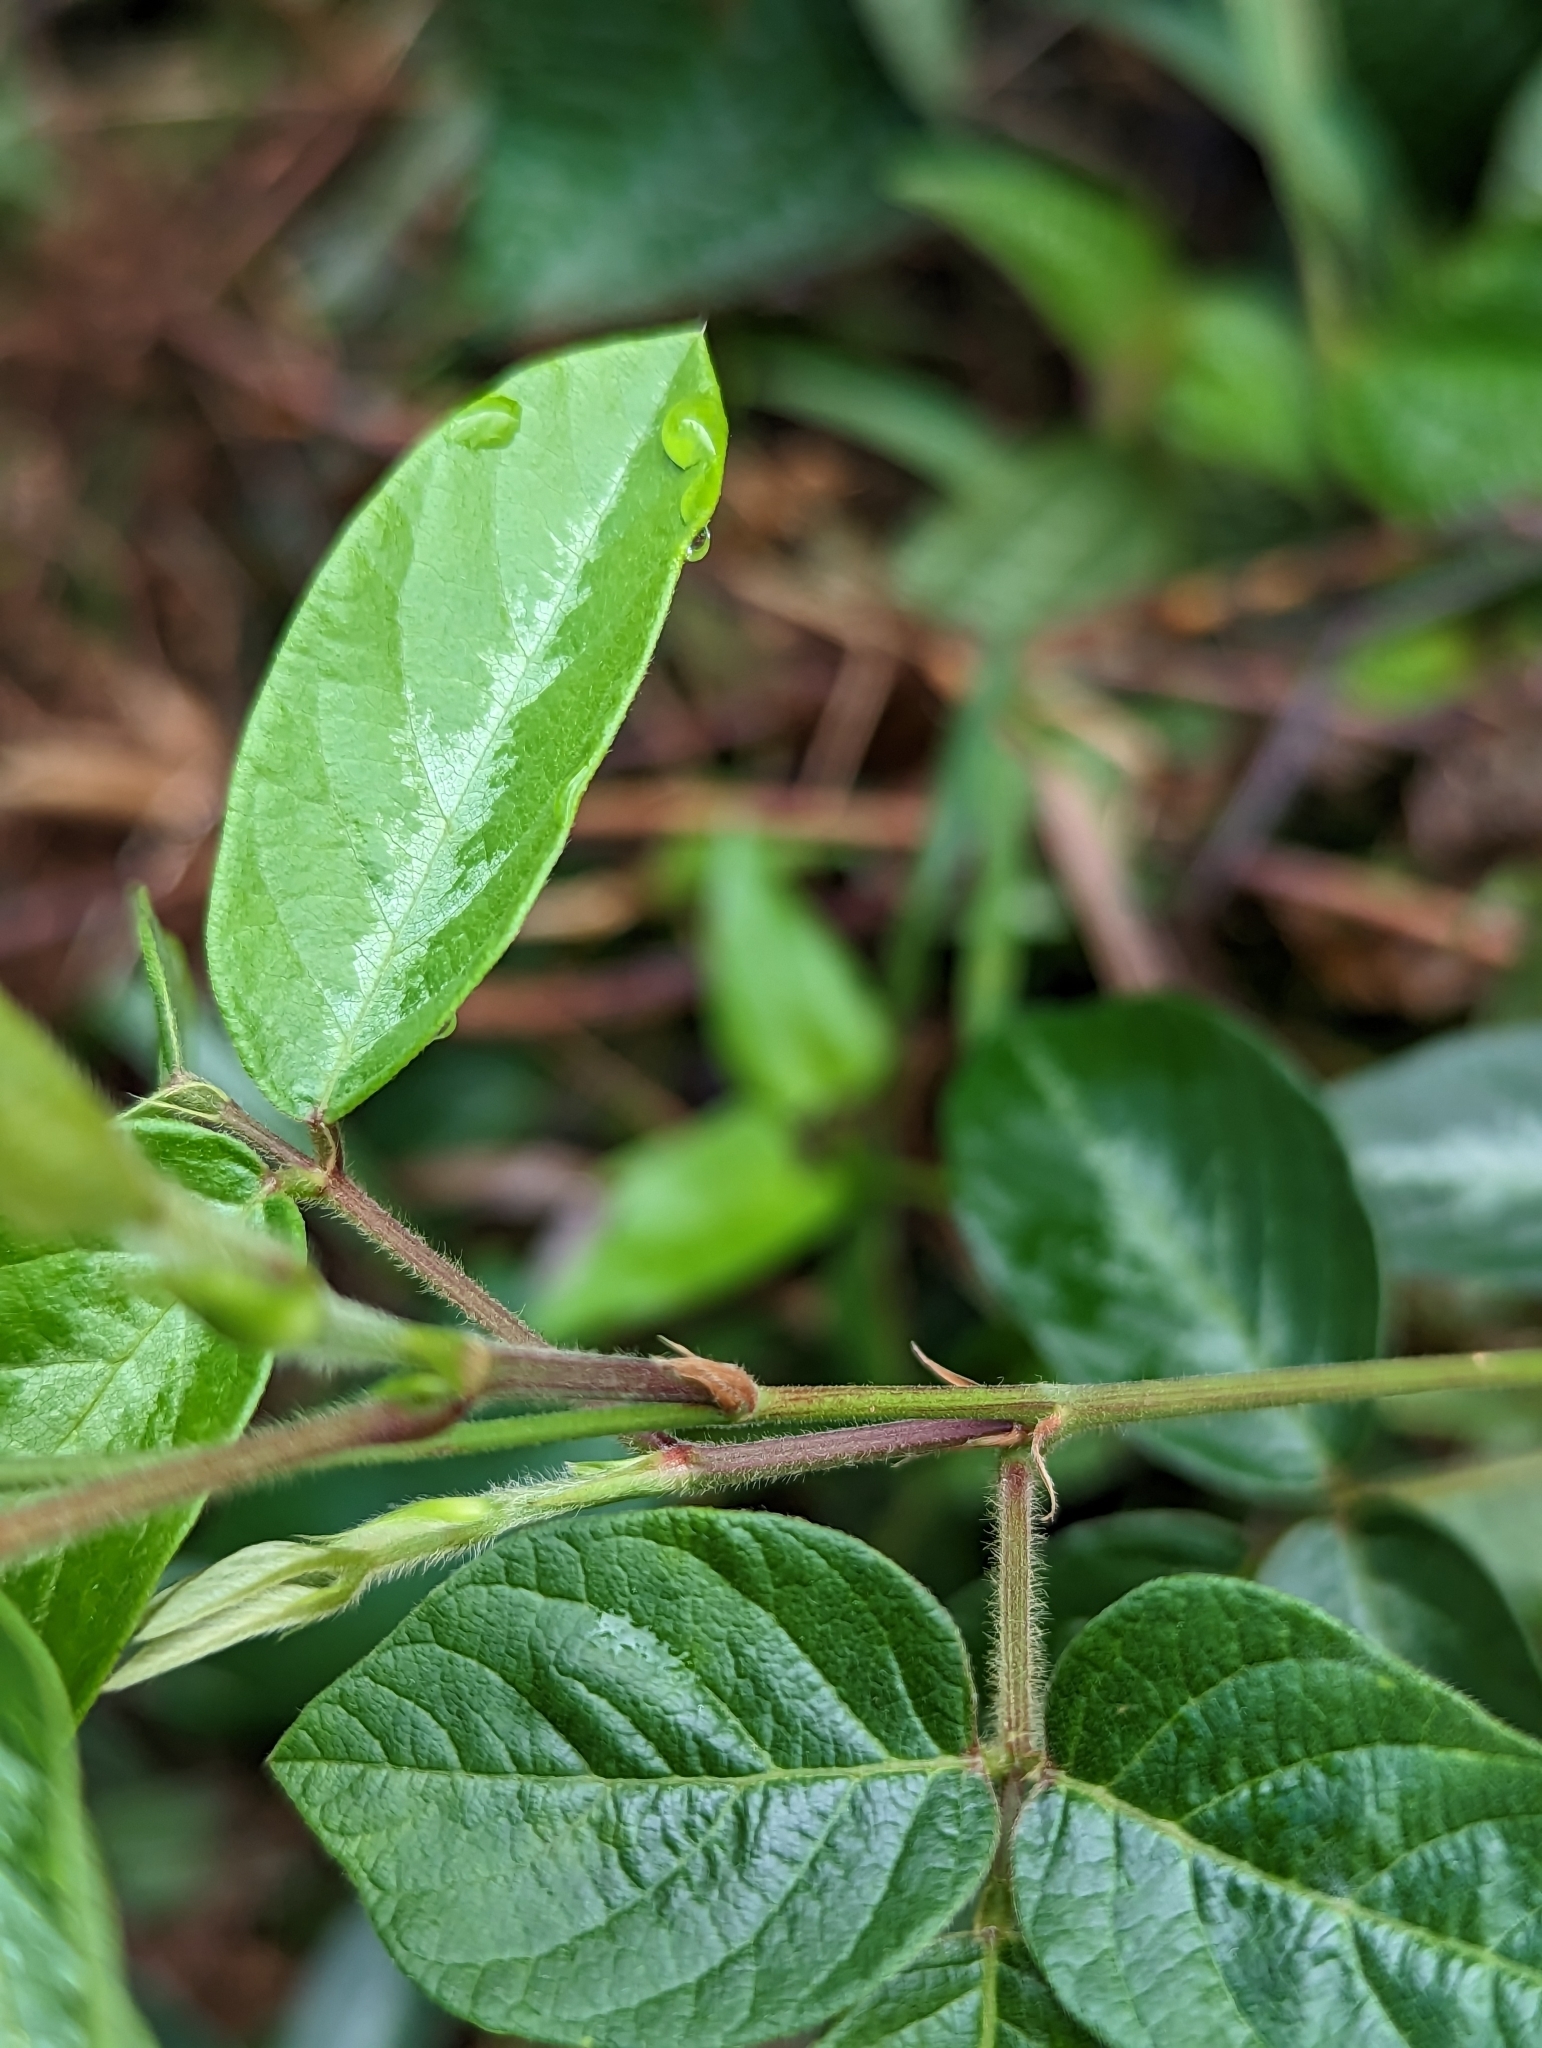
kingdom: Plantae
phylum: Tracheophyta
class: Magnoliopsida
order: Fabales
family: Fabaceae
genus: Desmodium
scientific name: Desmodium incanum
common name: Tickclover
